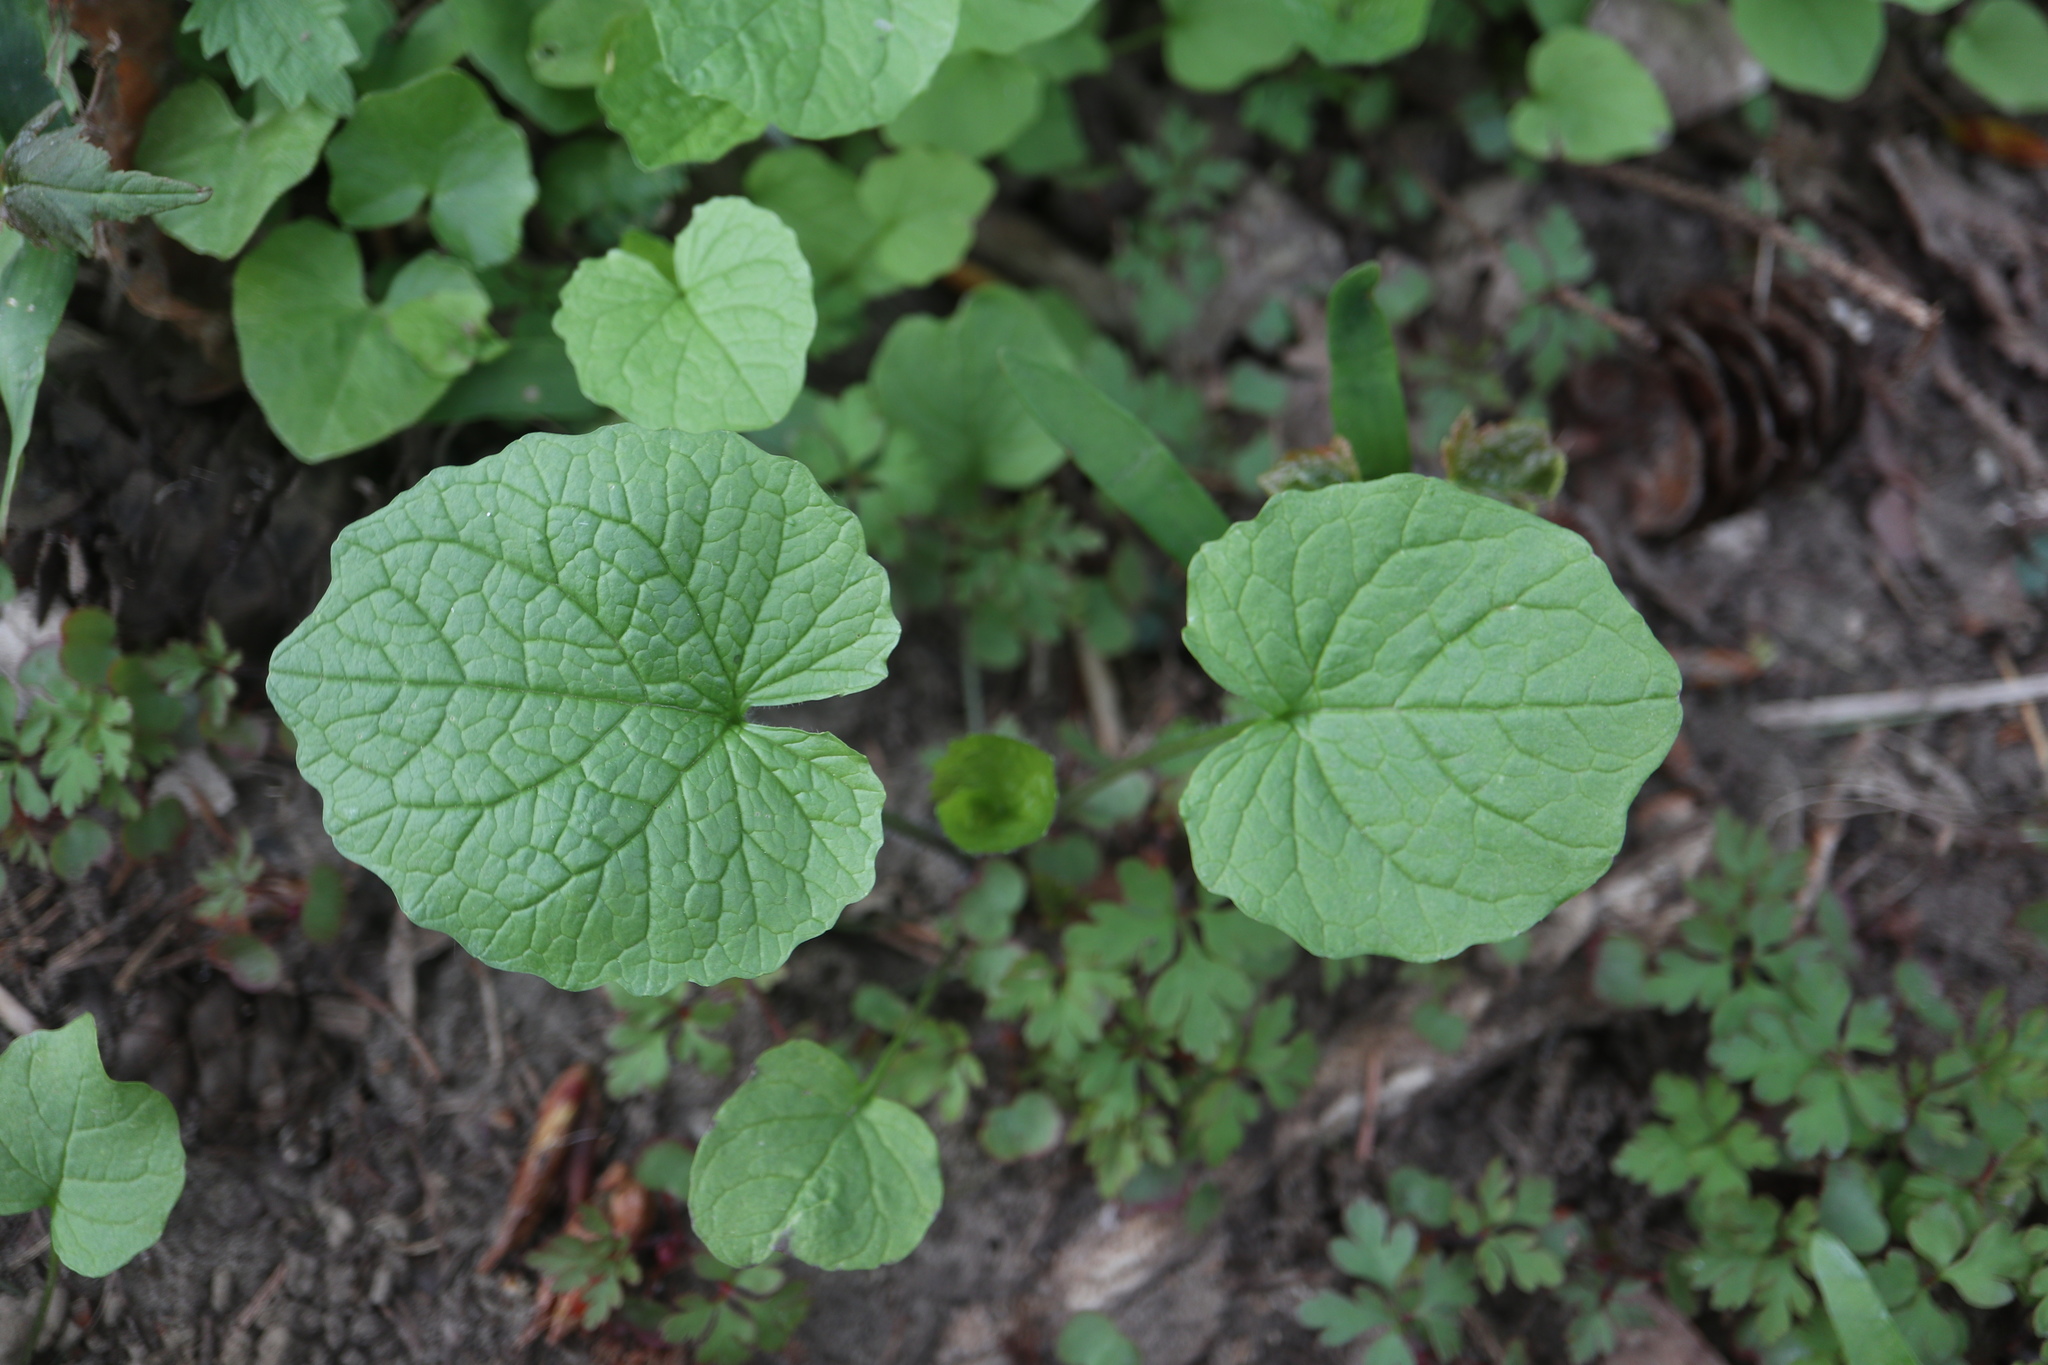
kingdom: Plantae
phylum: Tracheophyta
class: Magnoliopsida
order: Brassicales
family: Brassicaceae
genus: Alliaria
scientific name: Alliaria petiolata
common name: Garlic mustard
